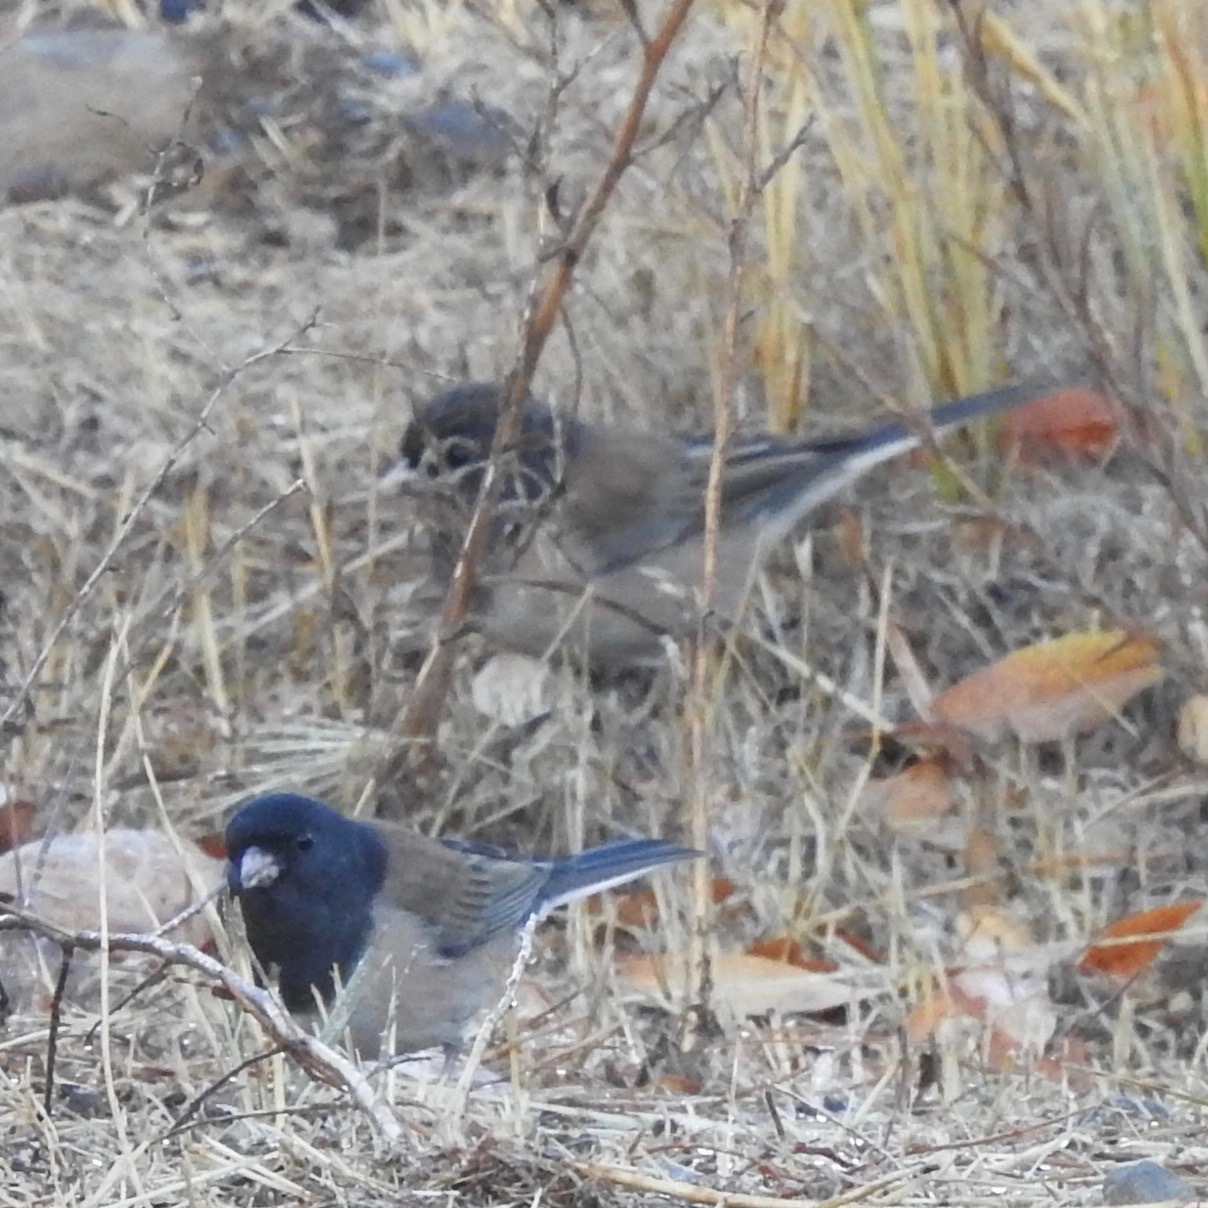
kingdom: Animalia
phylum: Chordata
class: Aves
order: Passeriformes
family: Passerellidae
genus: Junco
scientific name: Junco hyemalis
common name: Dark-eyed junco
